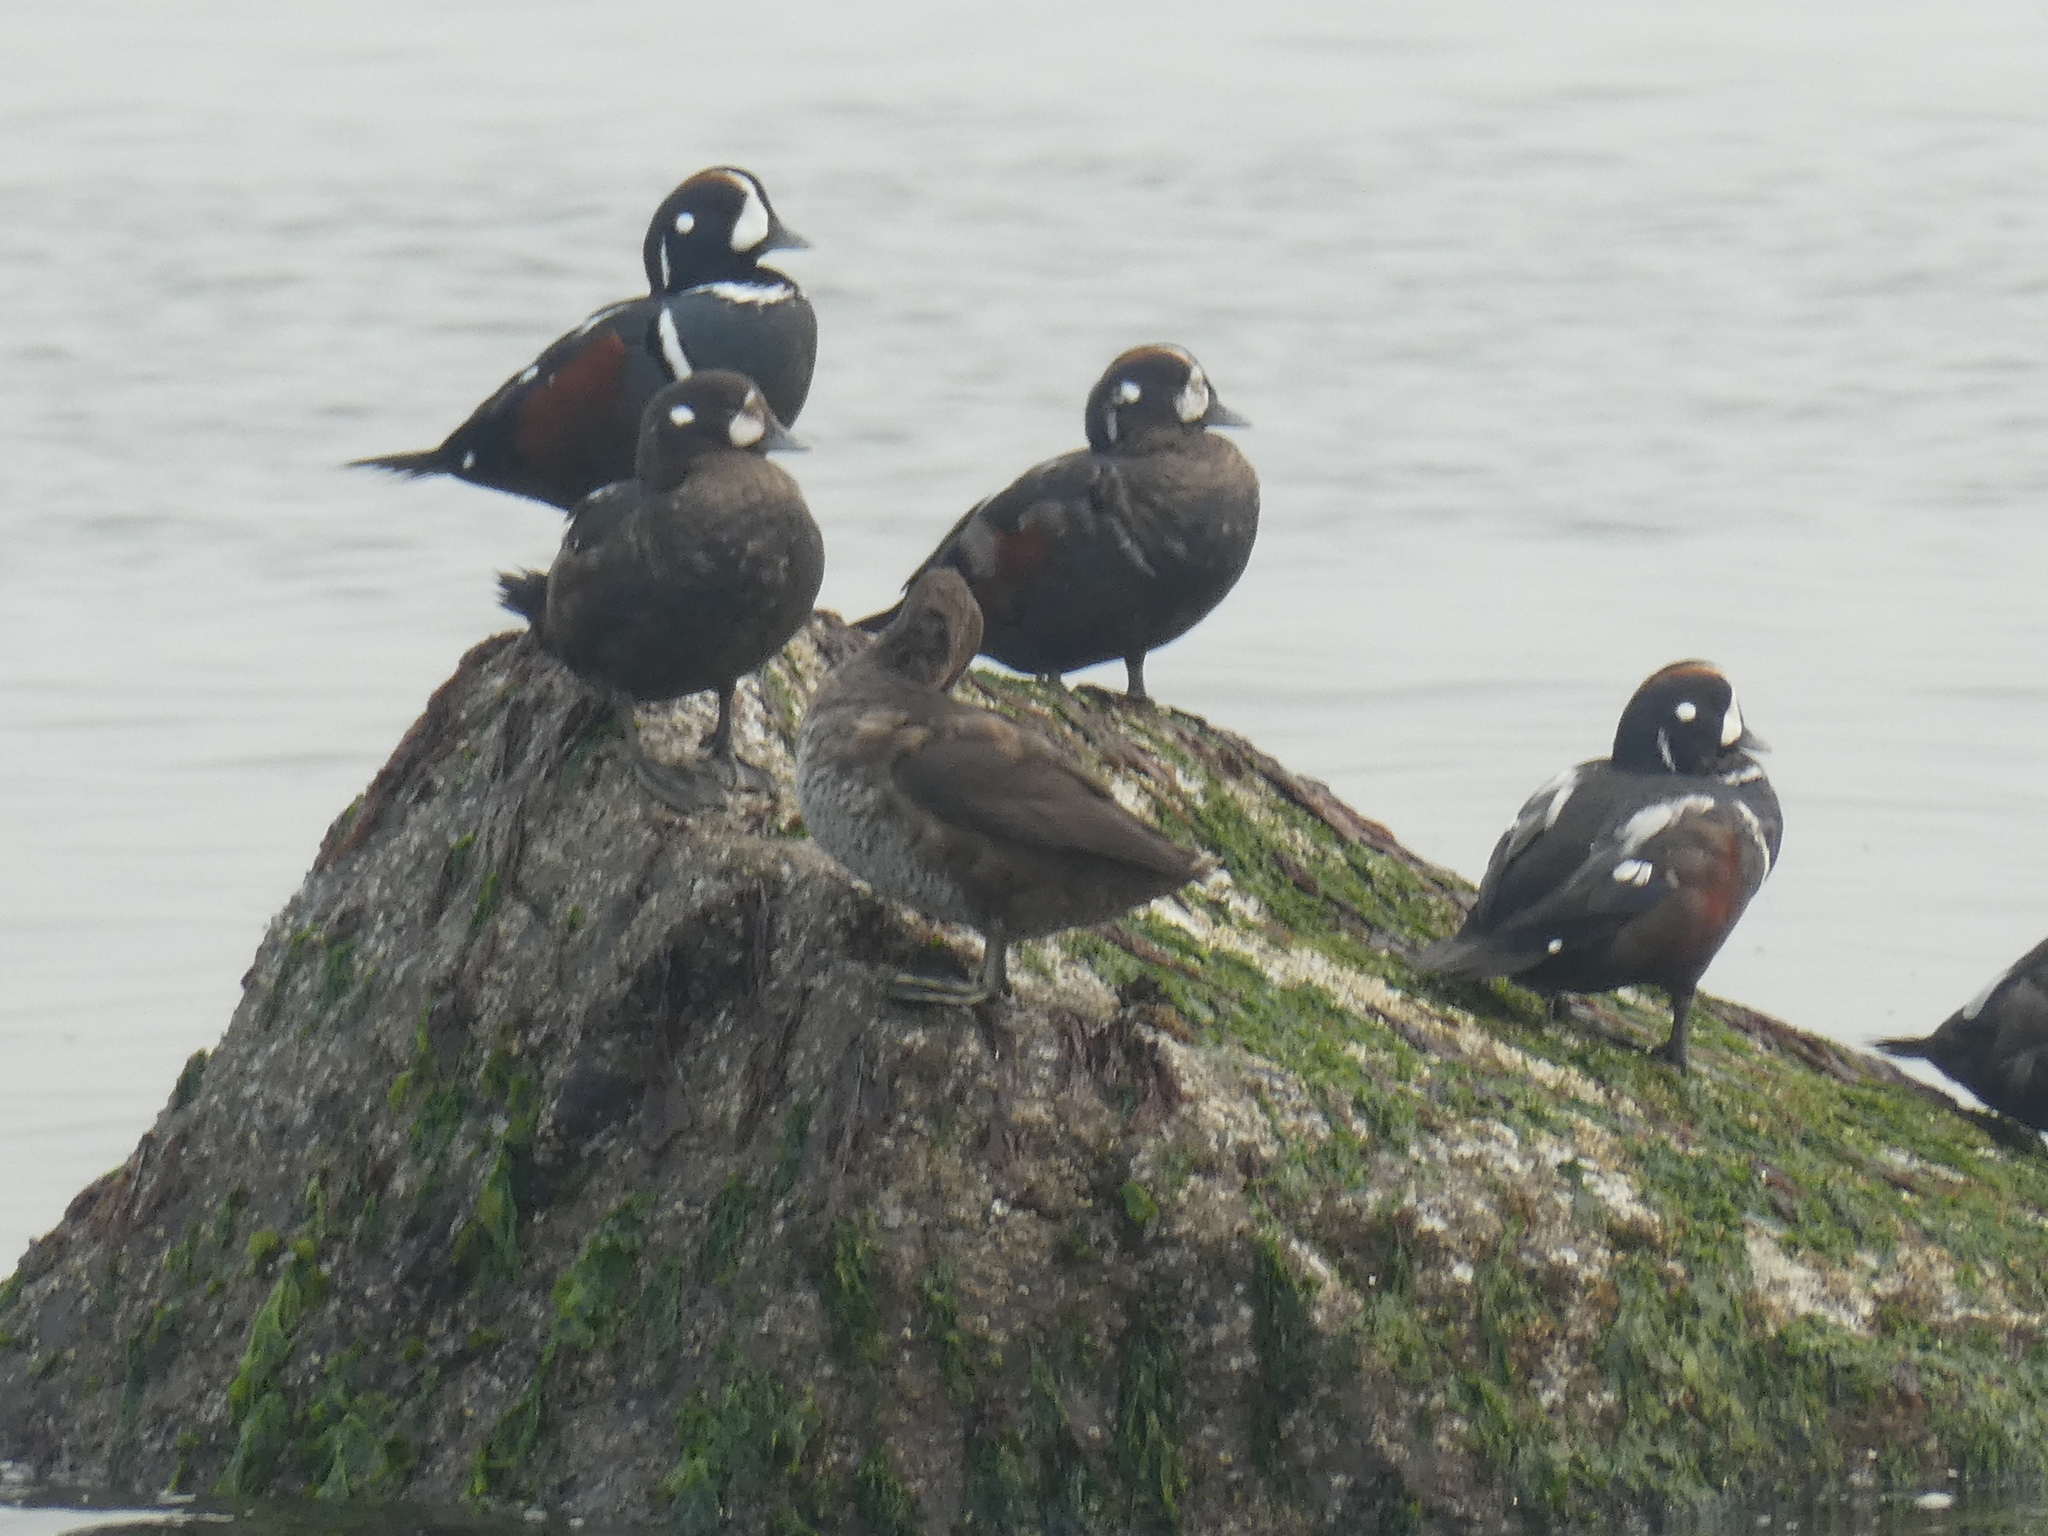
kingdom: Animalia
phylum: Chordata
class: Aves
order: Anseriformes
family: Anatidae
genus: Histrionicus
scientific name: Histrionicus histrionicus
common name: Harlequin duck
